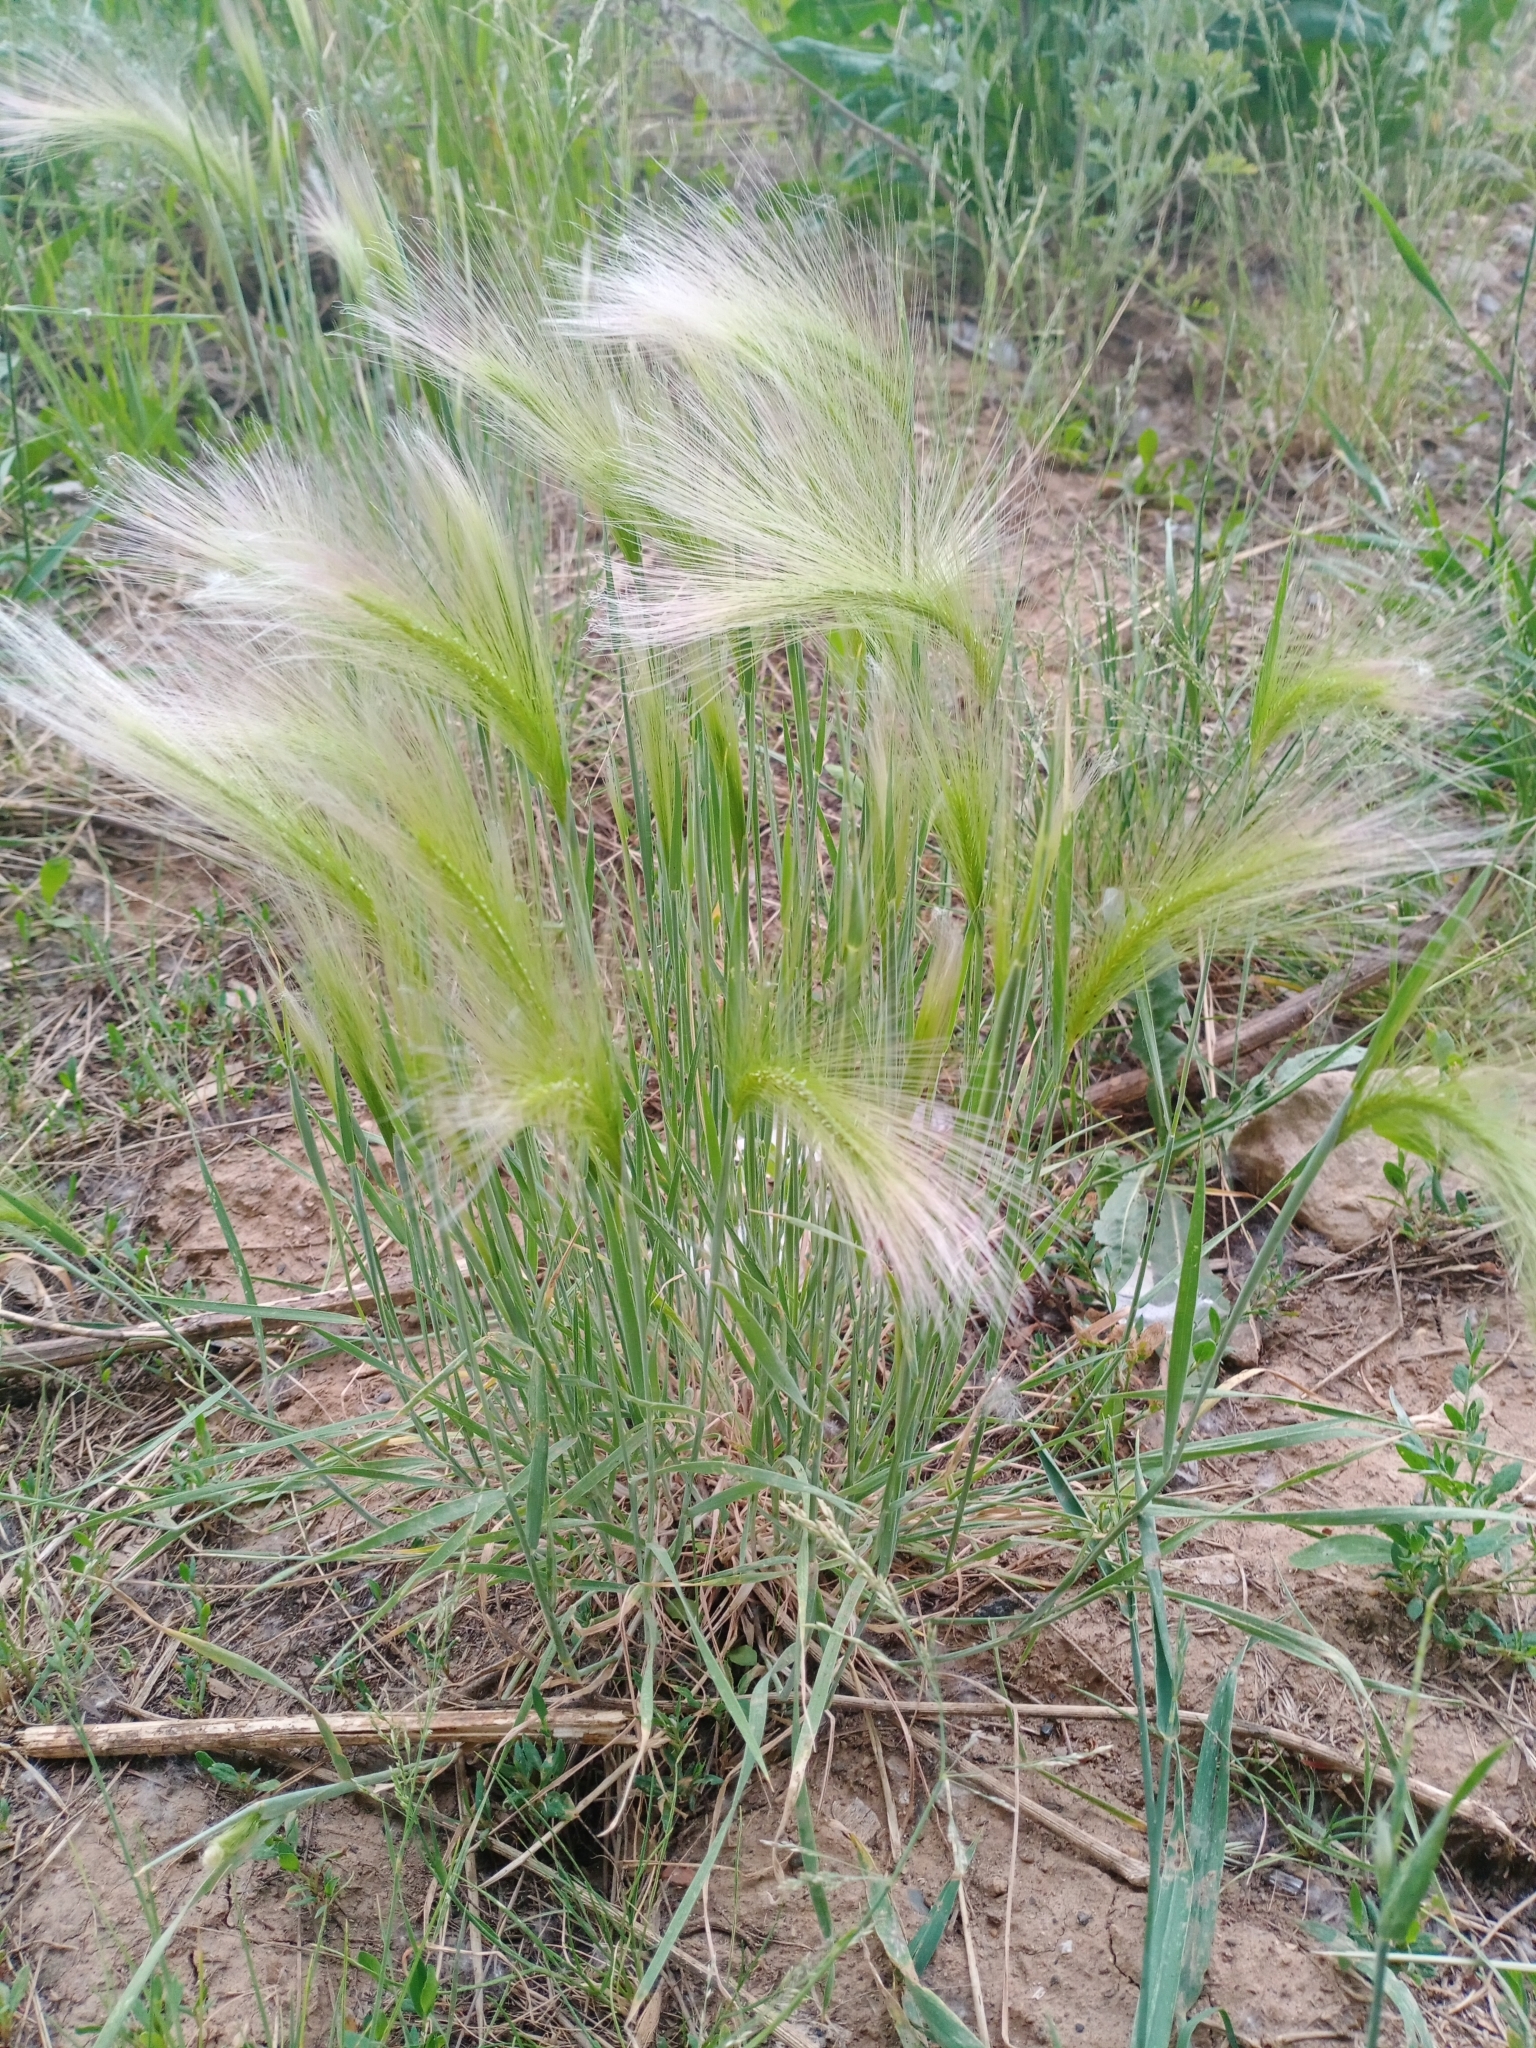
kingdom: Plantae
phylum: Tracheophyta
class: Liliopsida
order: Poales
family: Poaceae
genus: Hordeum
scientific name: Hordeum jubatum
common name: Foxtail barley
